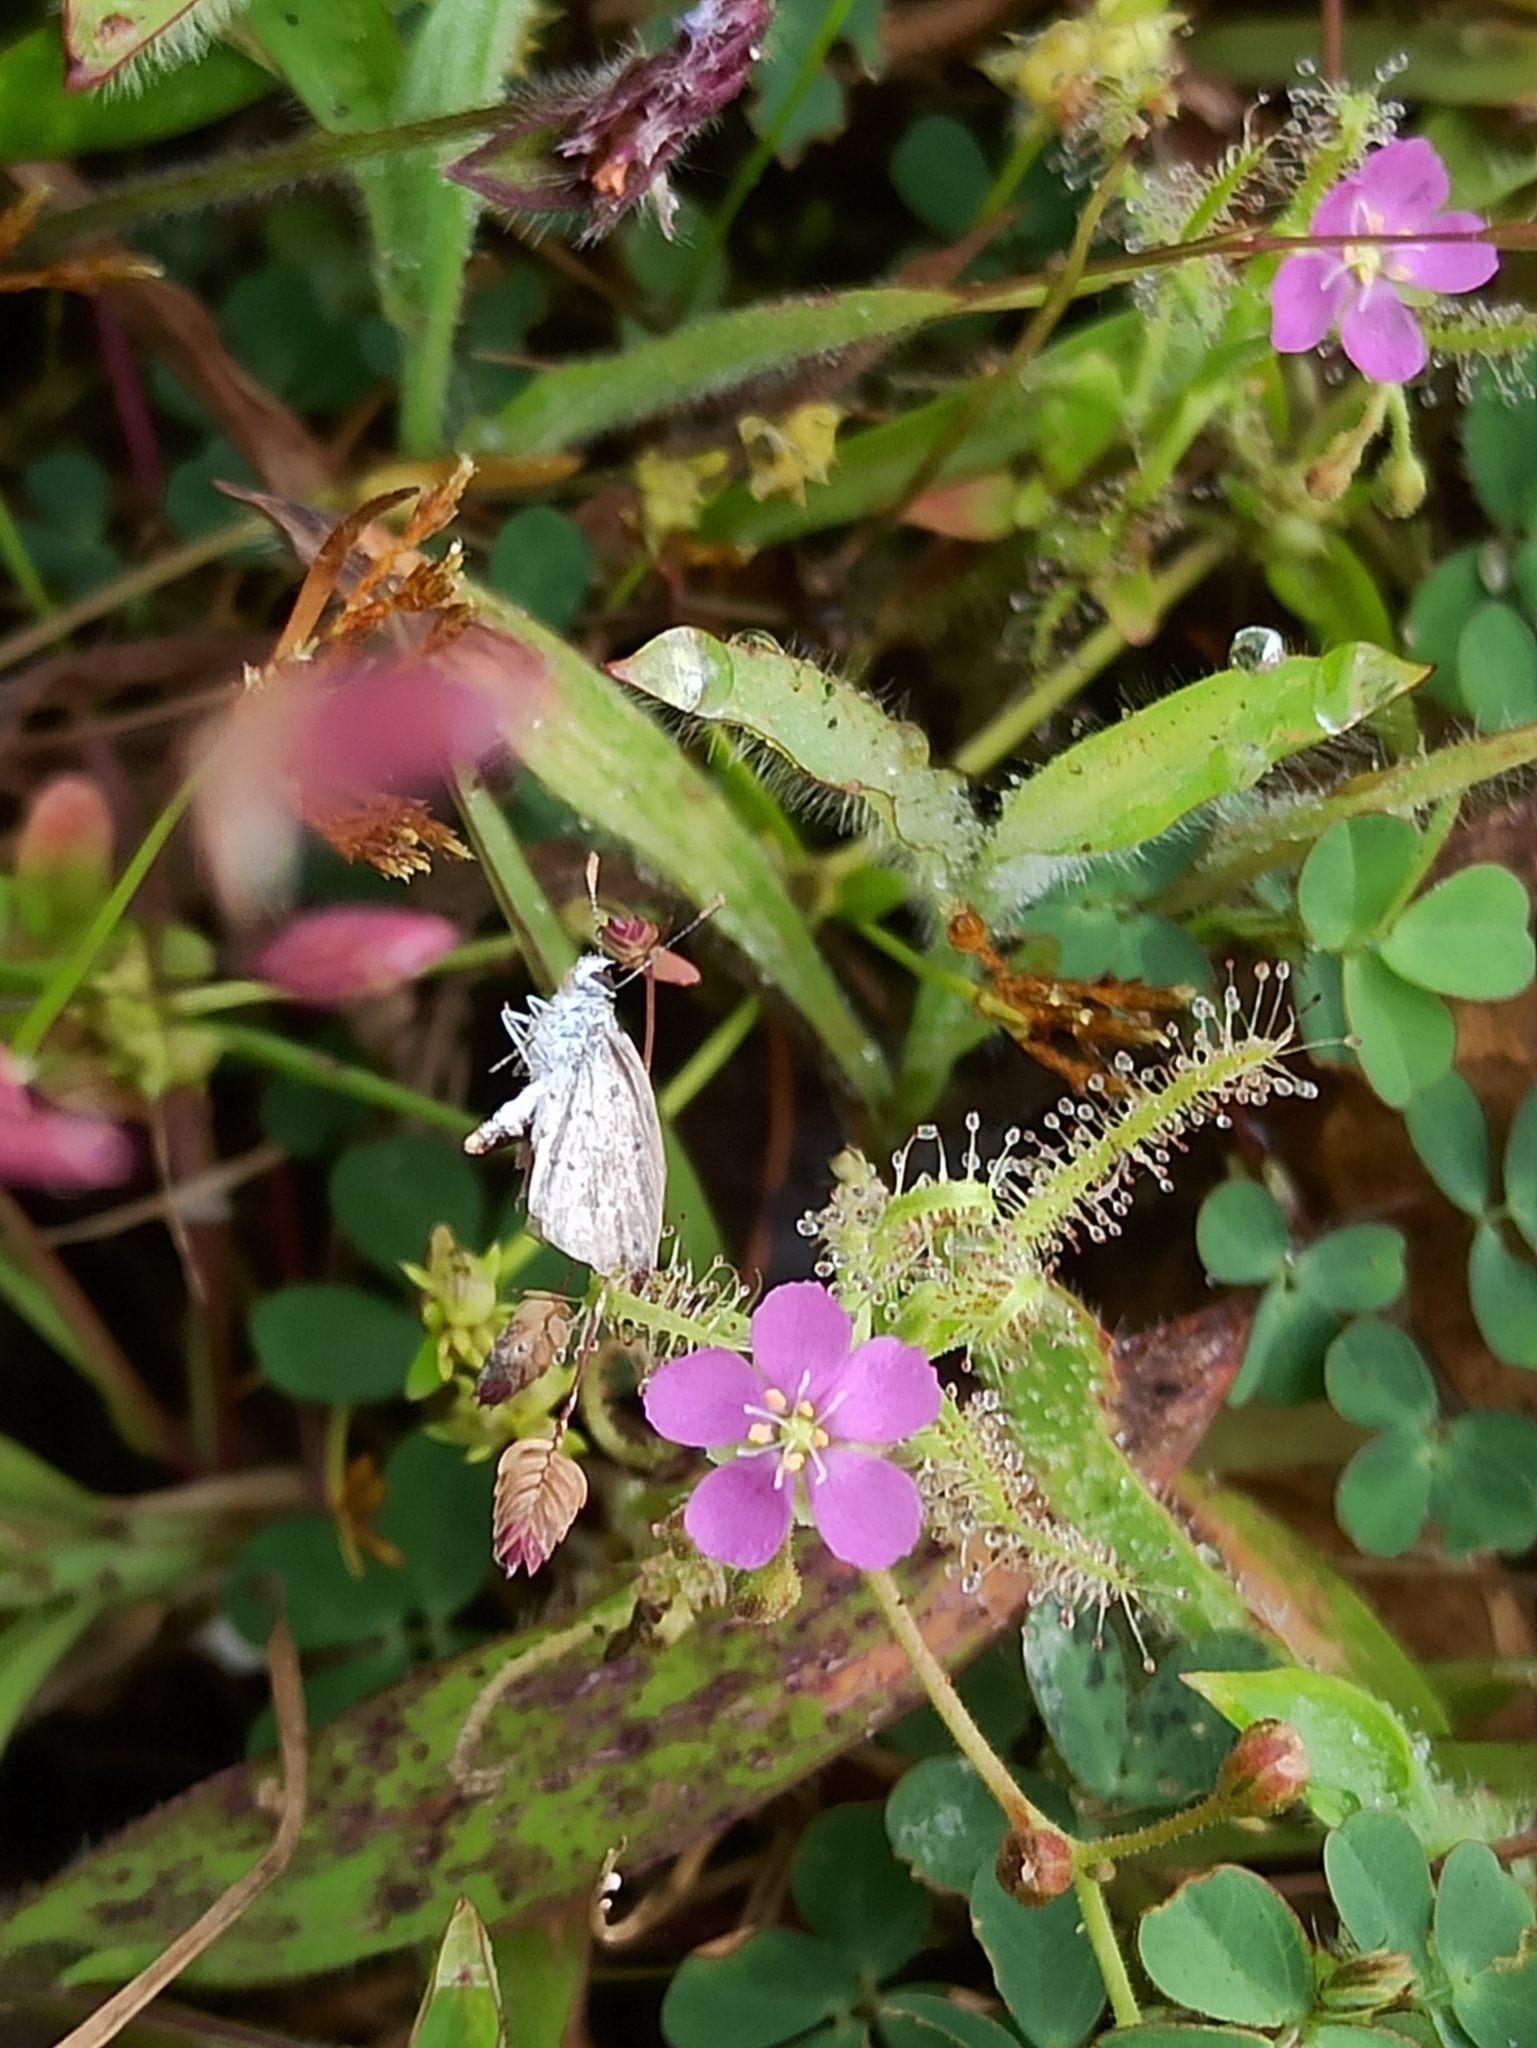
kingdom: Plantae
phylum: Tracheophyta
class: Magnoliopsida
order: Caryophyllales
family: Droseraceae
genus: Drosera
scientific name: Drosera indica
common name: Indian sundew
